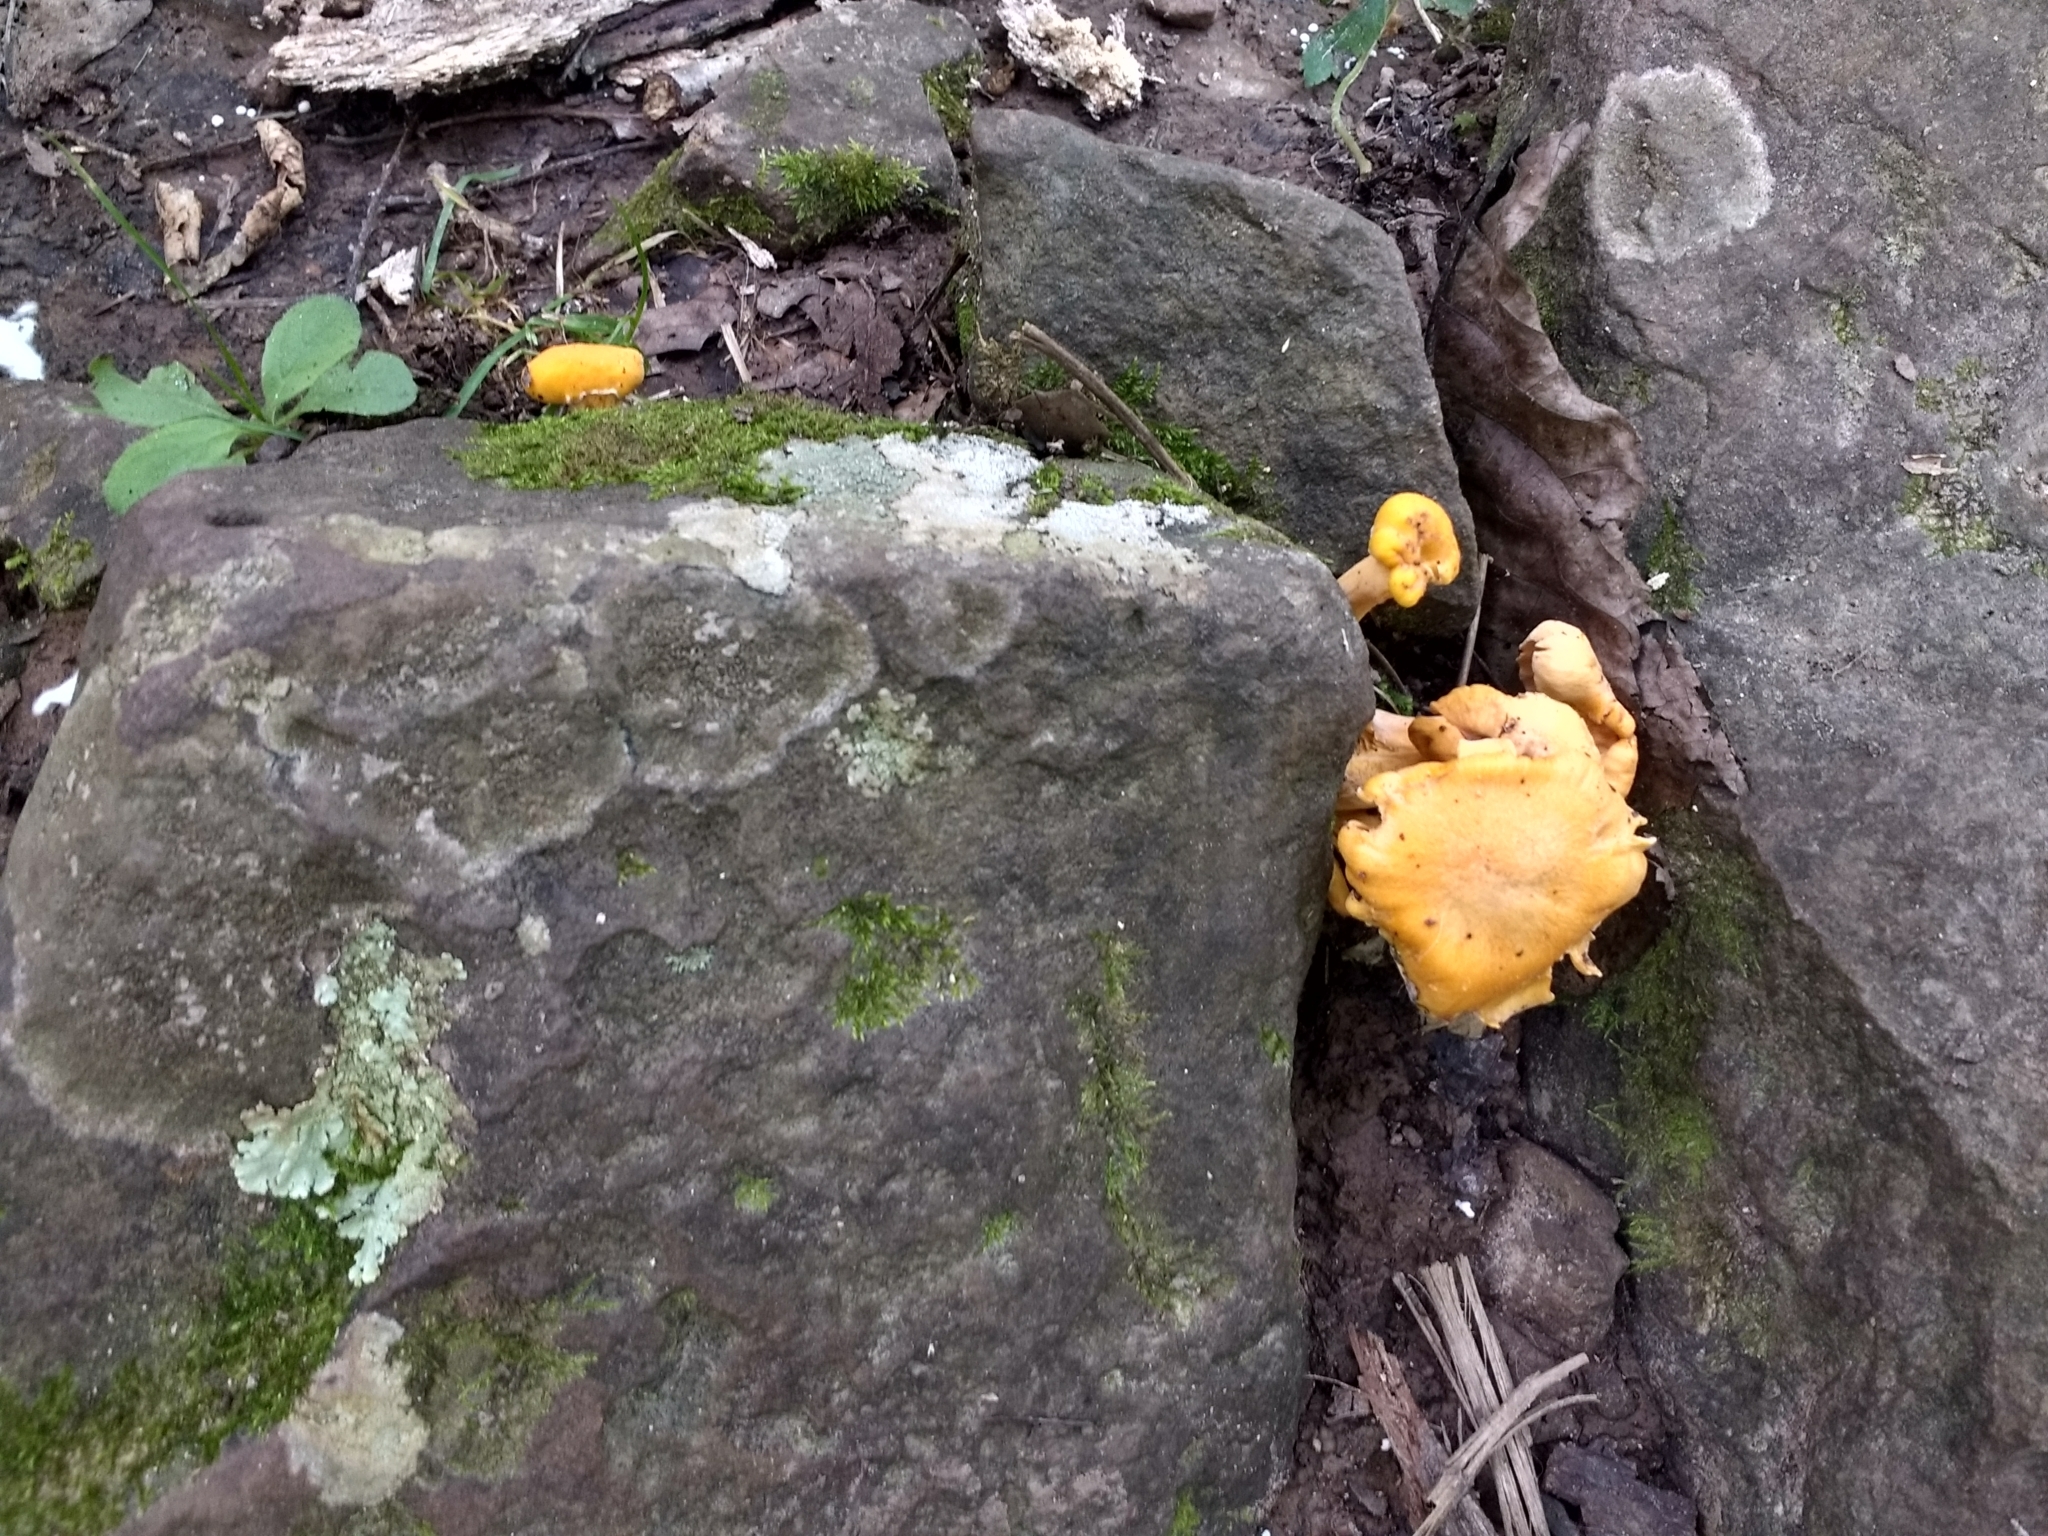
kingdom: Fungi
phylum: Basidiomycota
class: Agaricomycetes
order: Cantharellales
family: Hydnaceae
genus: Cantharellus
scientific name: Cantharellus
